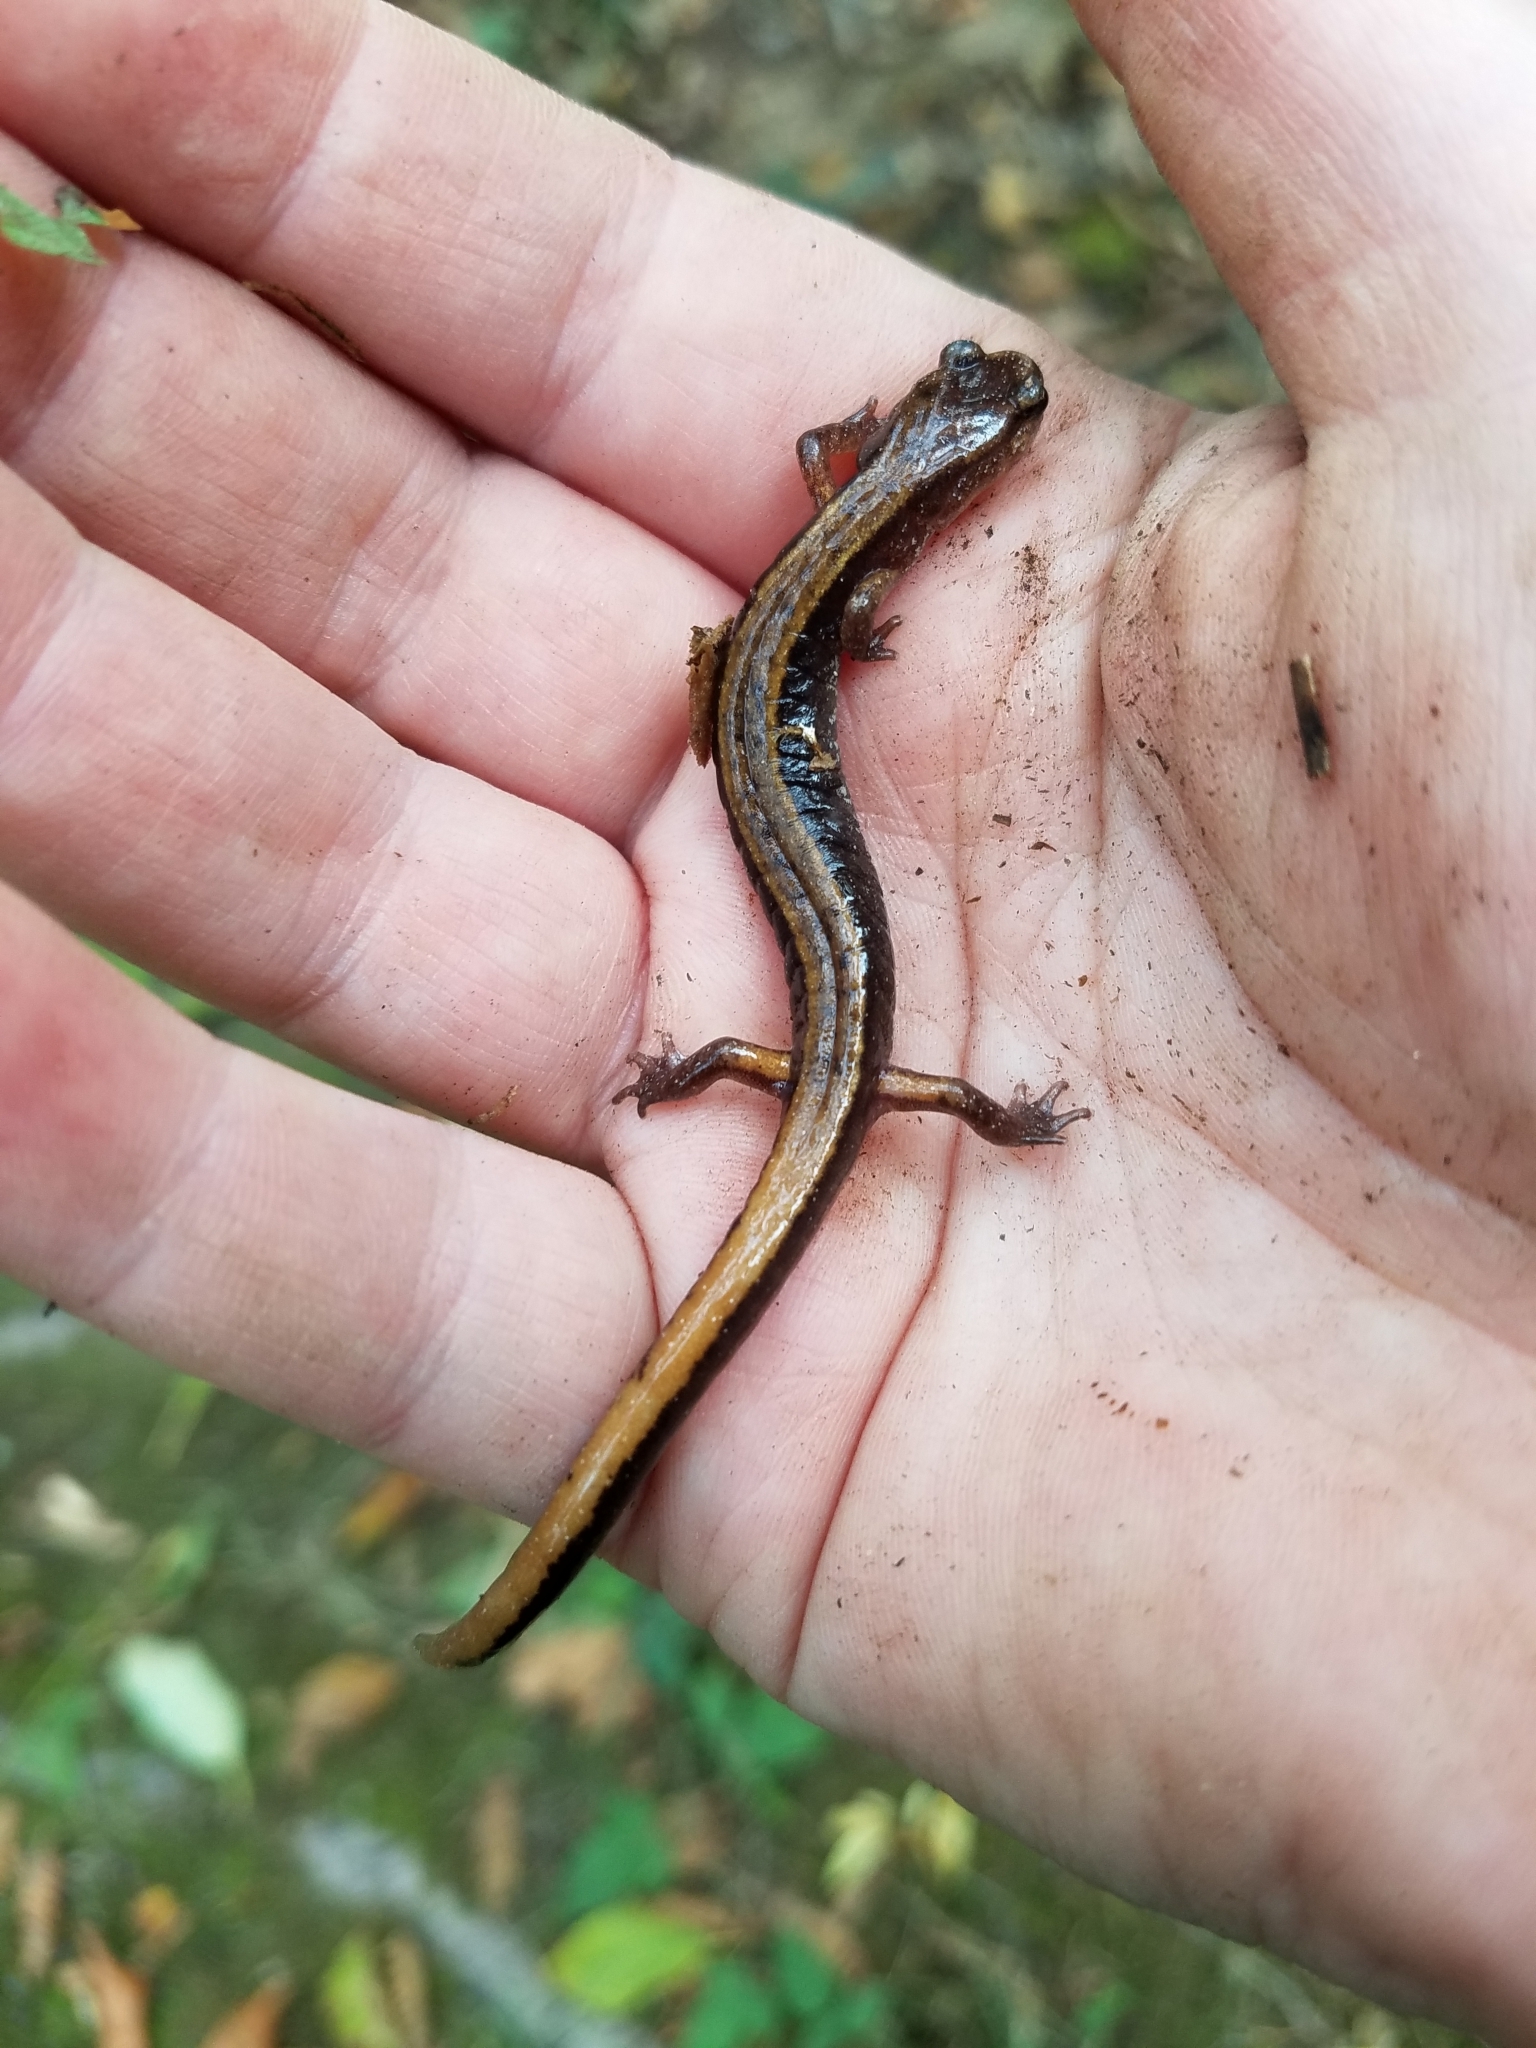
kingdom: Animalia
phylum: Chordata
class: Amphibia
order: Caudata
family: Plethodontidae
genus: Plethodon
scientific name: Plethodon vehiculum
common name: Western red-backed salamander
